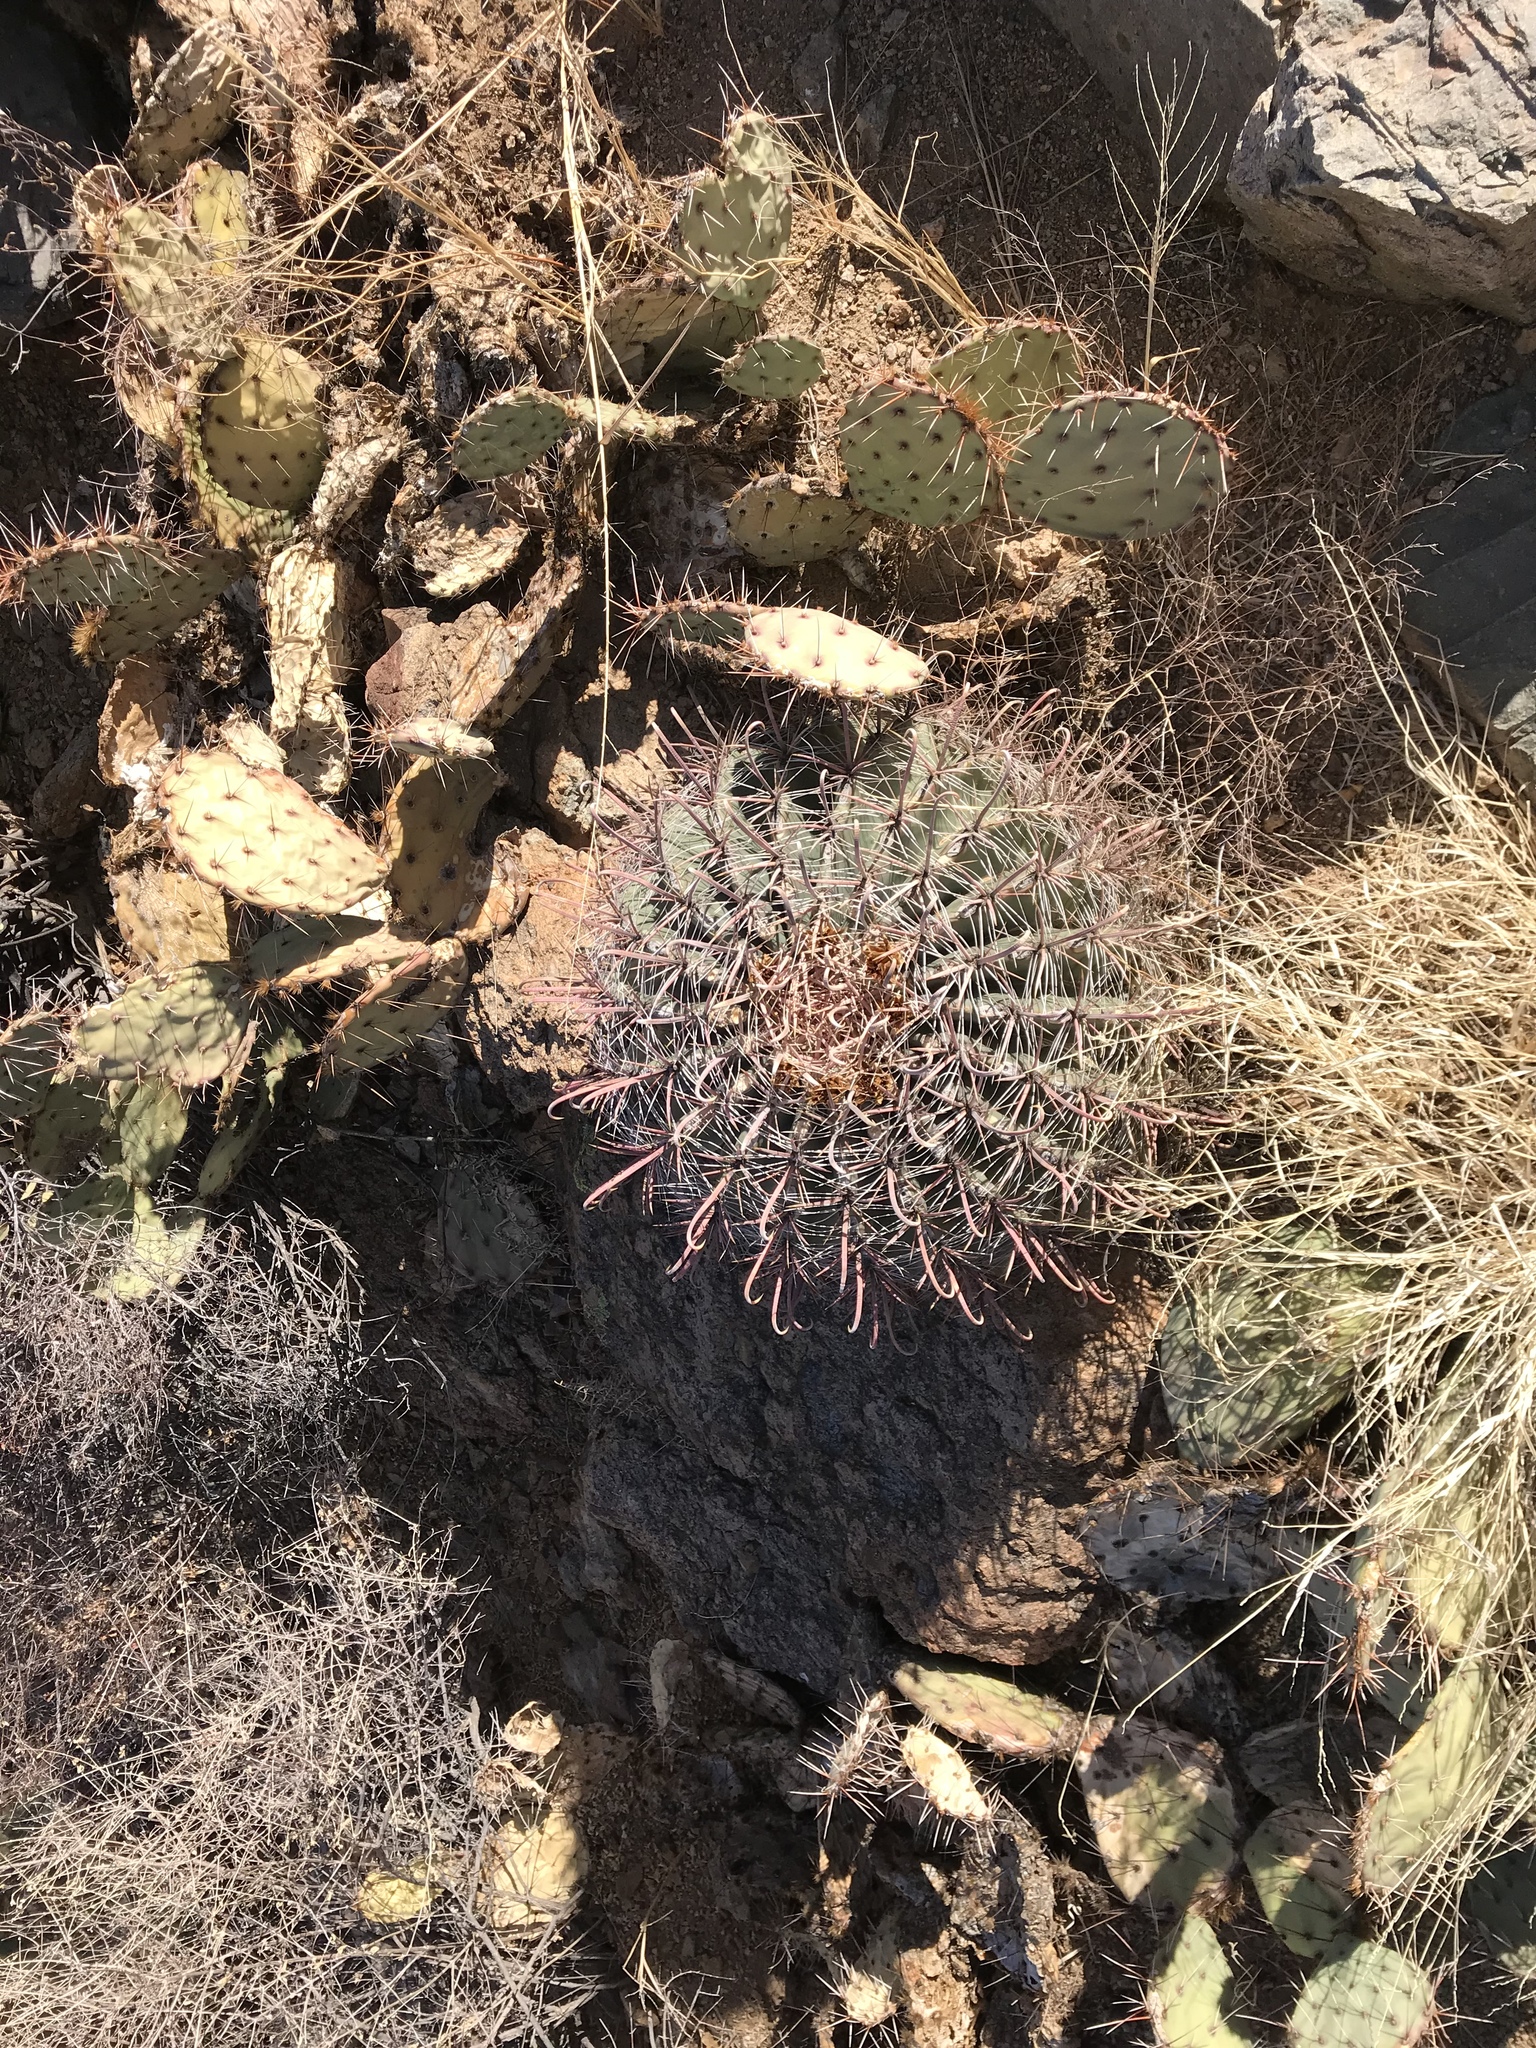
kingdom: Plantae
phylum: Tracheophyta
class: Magnoliopsida
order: Caryophyllales
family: Cactaceae
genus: Ferocactus
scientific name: Ferocactus wislizeni
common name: Candy barrel cactus
